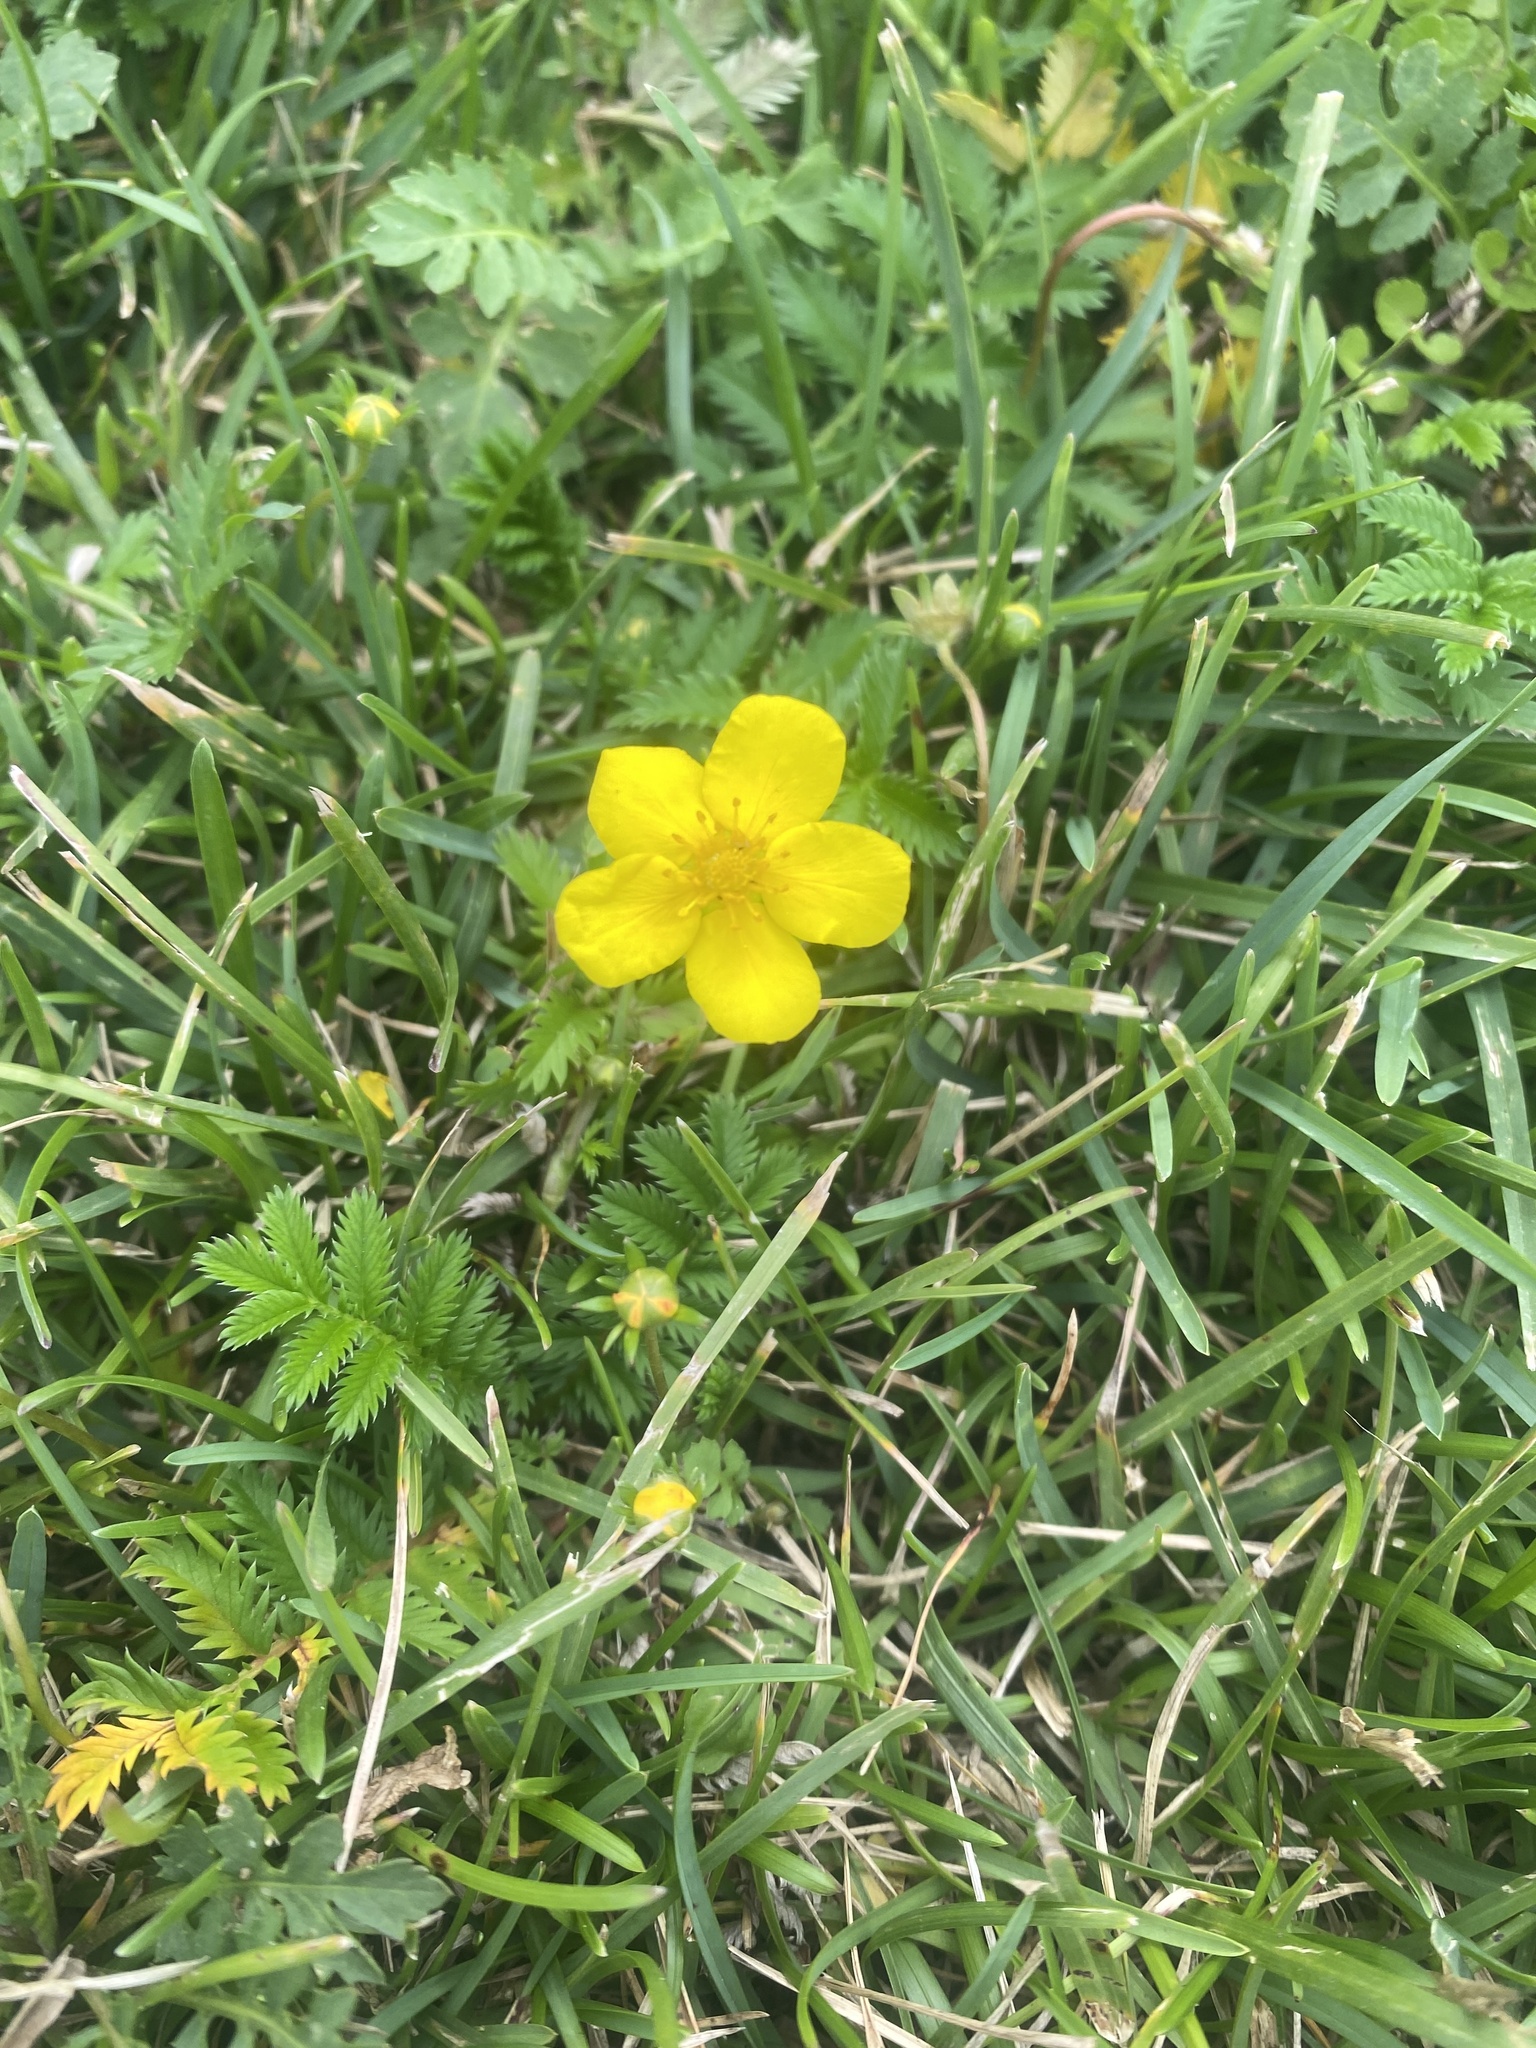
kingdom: Plantae
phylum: Tracheophyta
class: Magnoliopsida
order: Rosales
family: Rosaceae
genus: Argentina
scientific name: Argentina anserina
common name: Common silverweed
